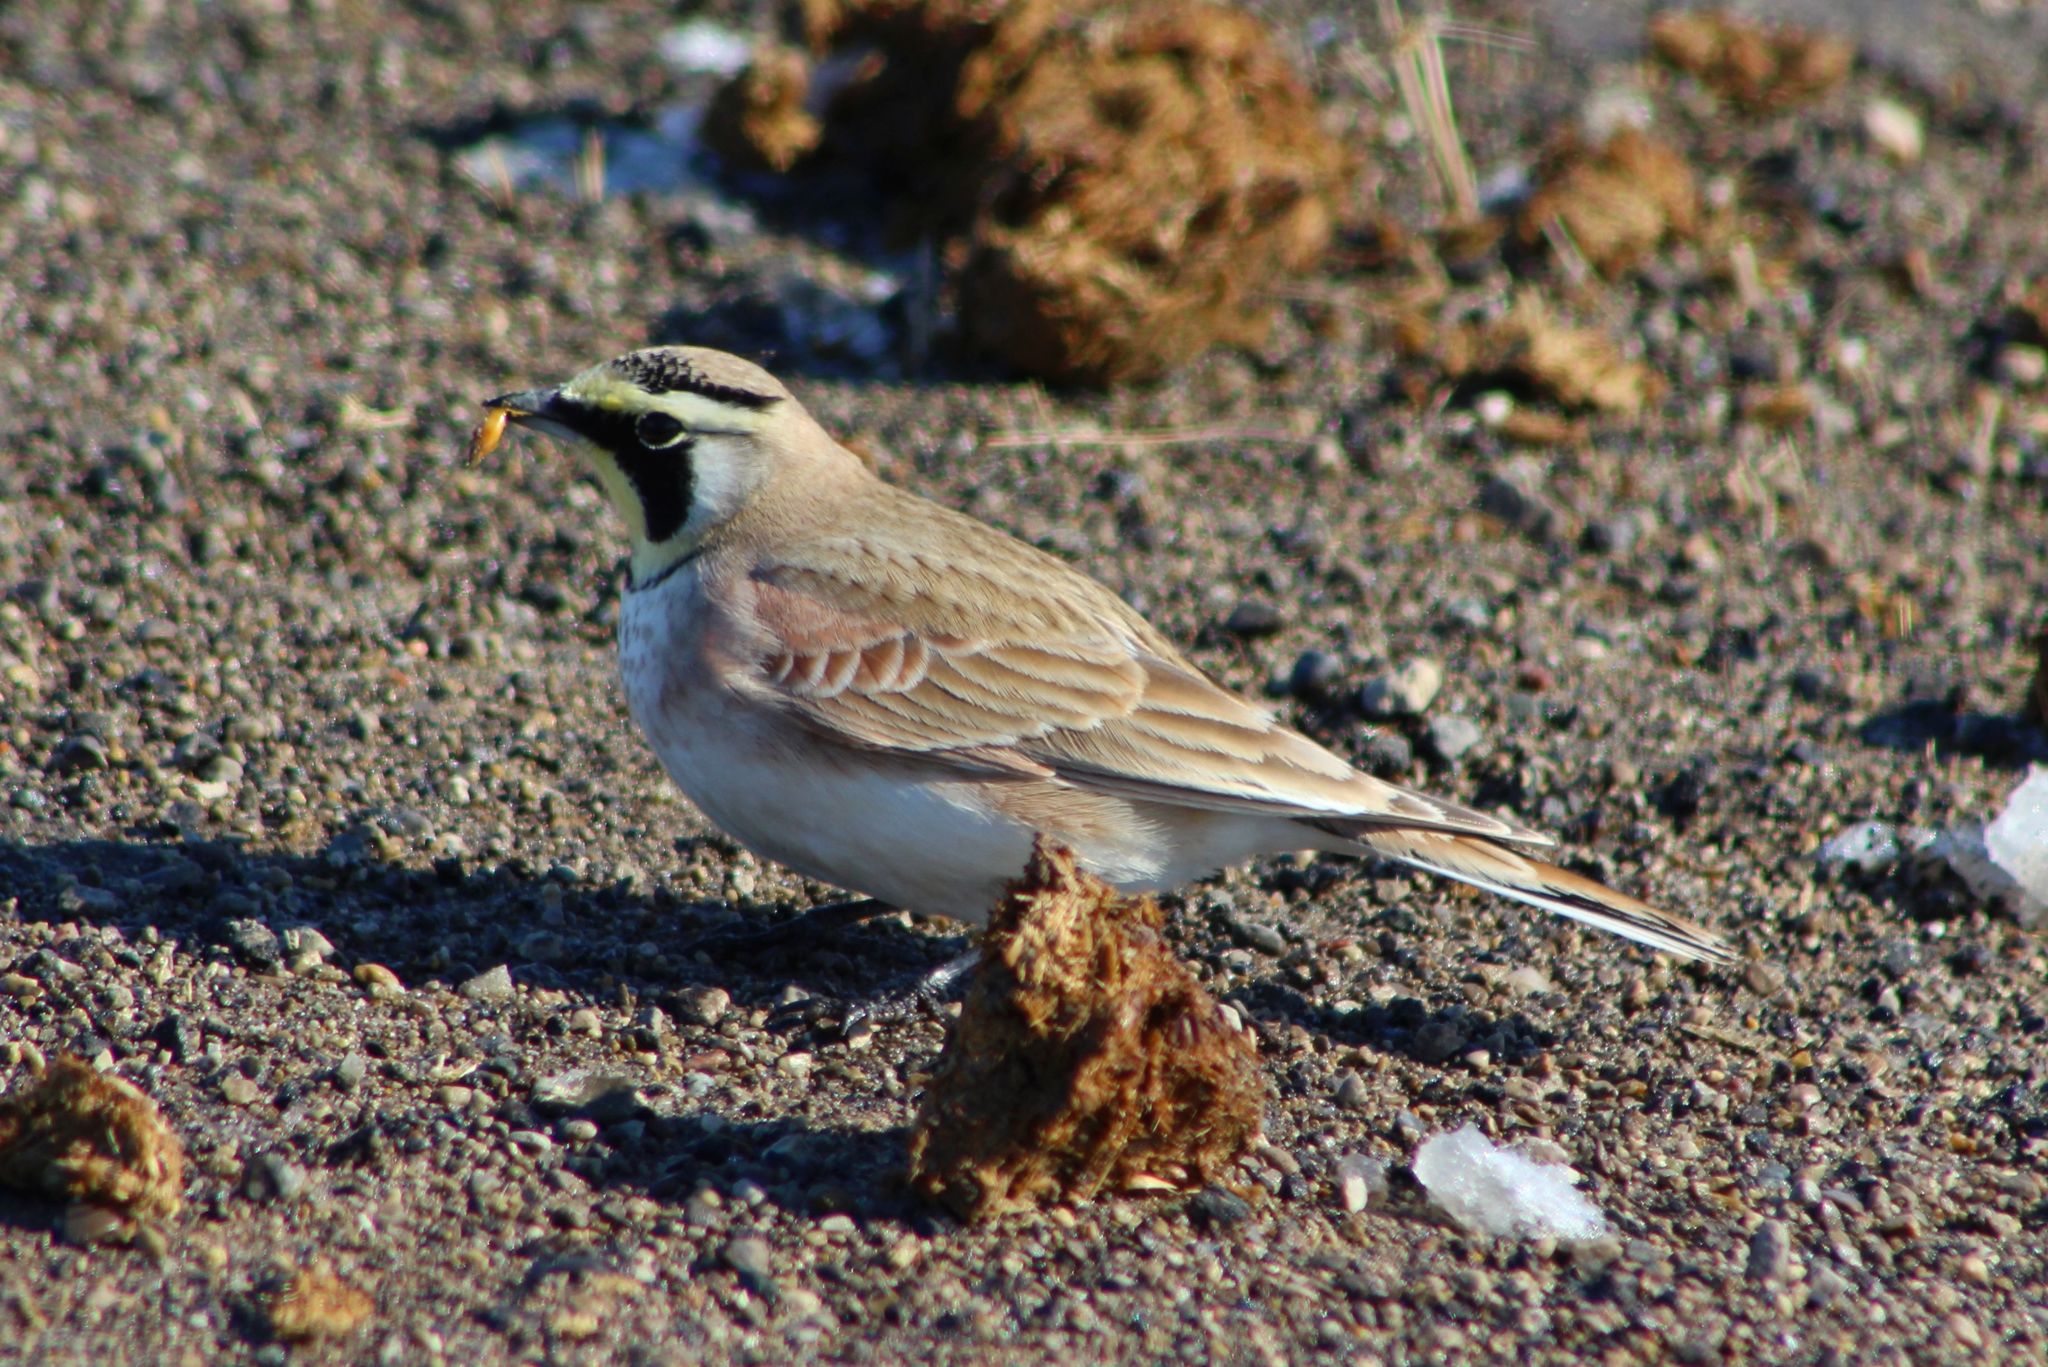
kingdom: Animalia
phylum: Chordata
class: Aves
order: Passeriformes
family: Alaudidae
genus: Eremophila
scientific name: Eremophila alpestris
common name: Horned lark
